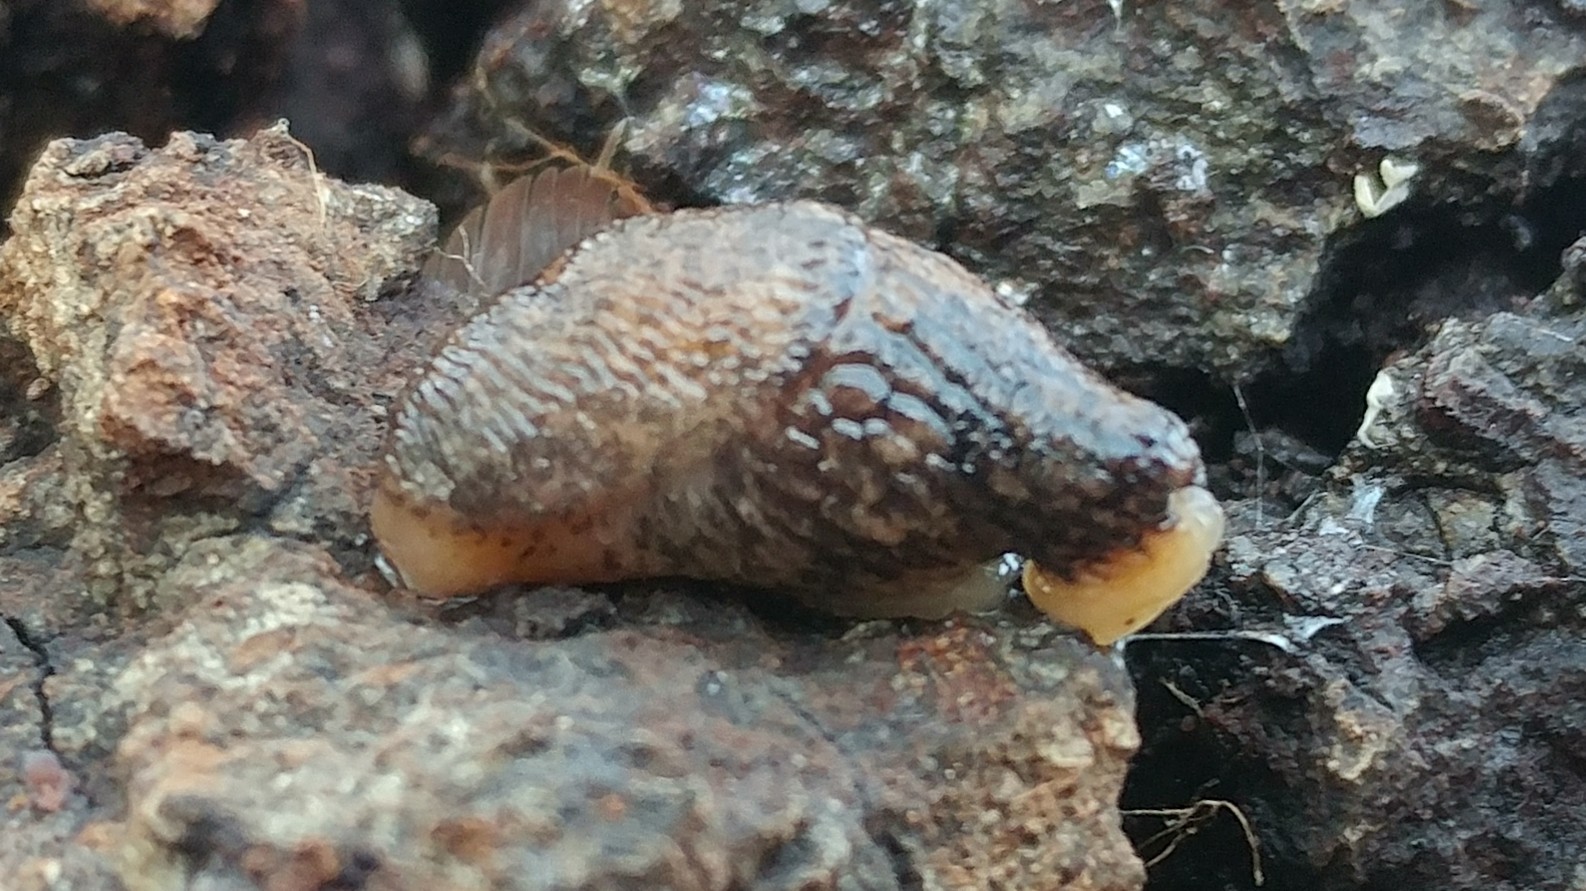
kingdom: Animalia
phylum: Mollusca
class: Gastropoda
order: Stylommatophora
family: Agriolimacidae
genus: Deroceras
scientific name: Deroceras reticulatum
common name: Gray field slug
